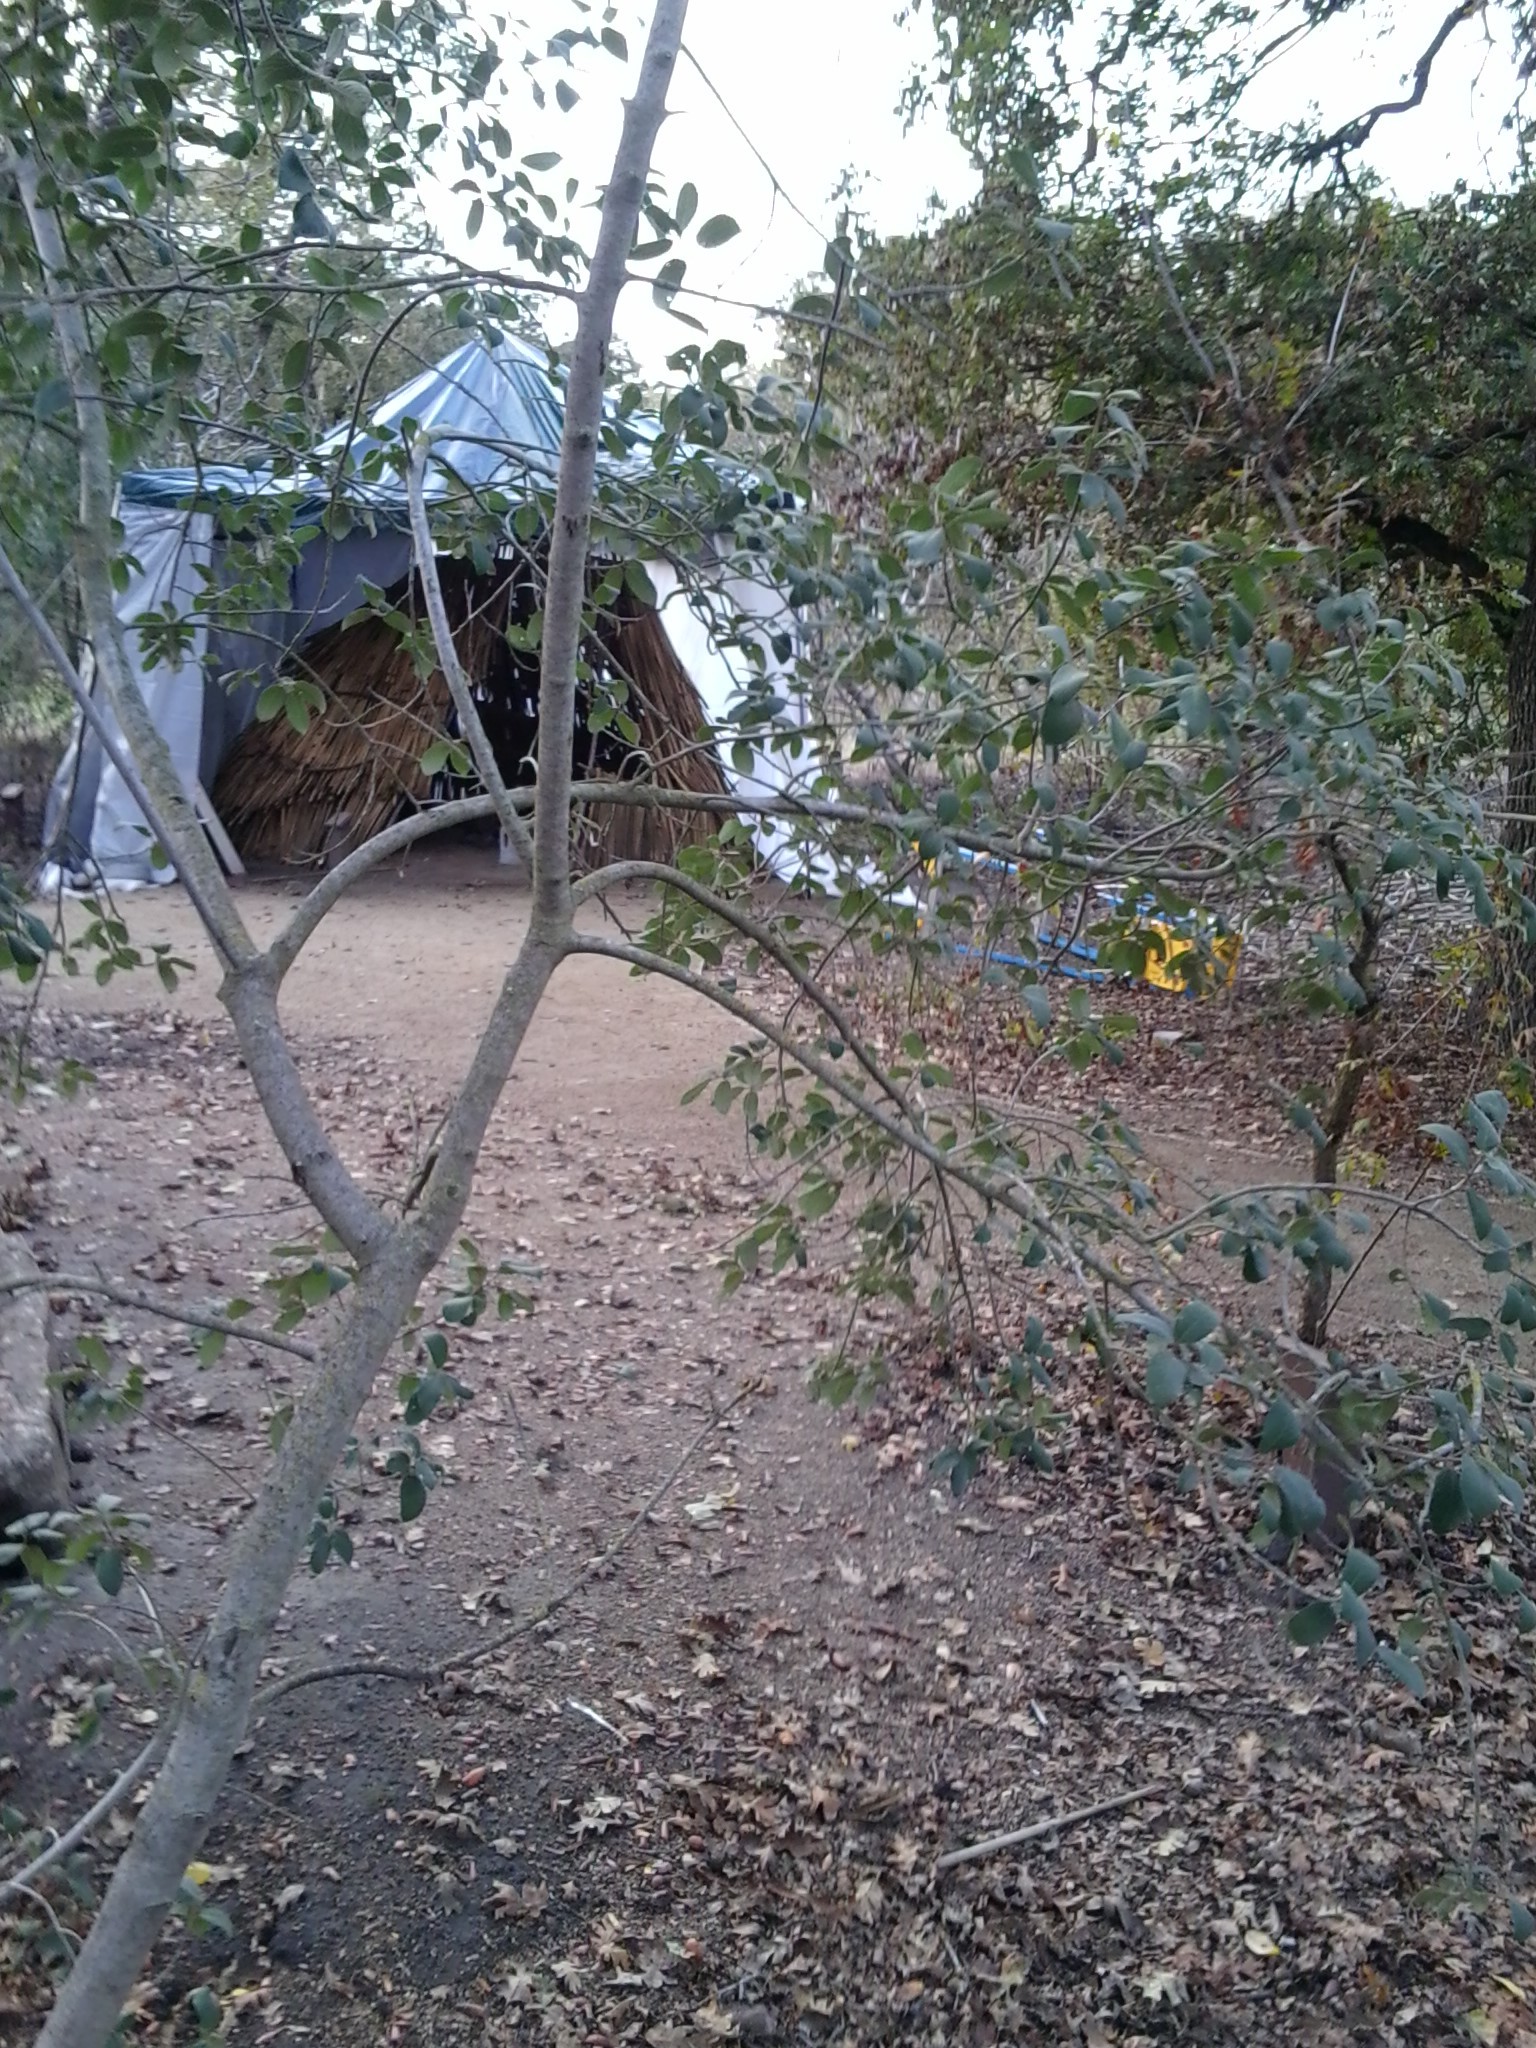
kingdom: Plantae
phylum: Tracheophyta
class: Magnoliopsida
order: Rosales
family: Rhamnaceae
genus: Frangula
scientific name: Frangula californica
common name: California buckthorn
